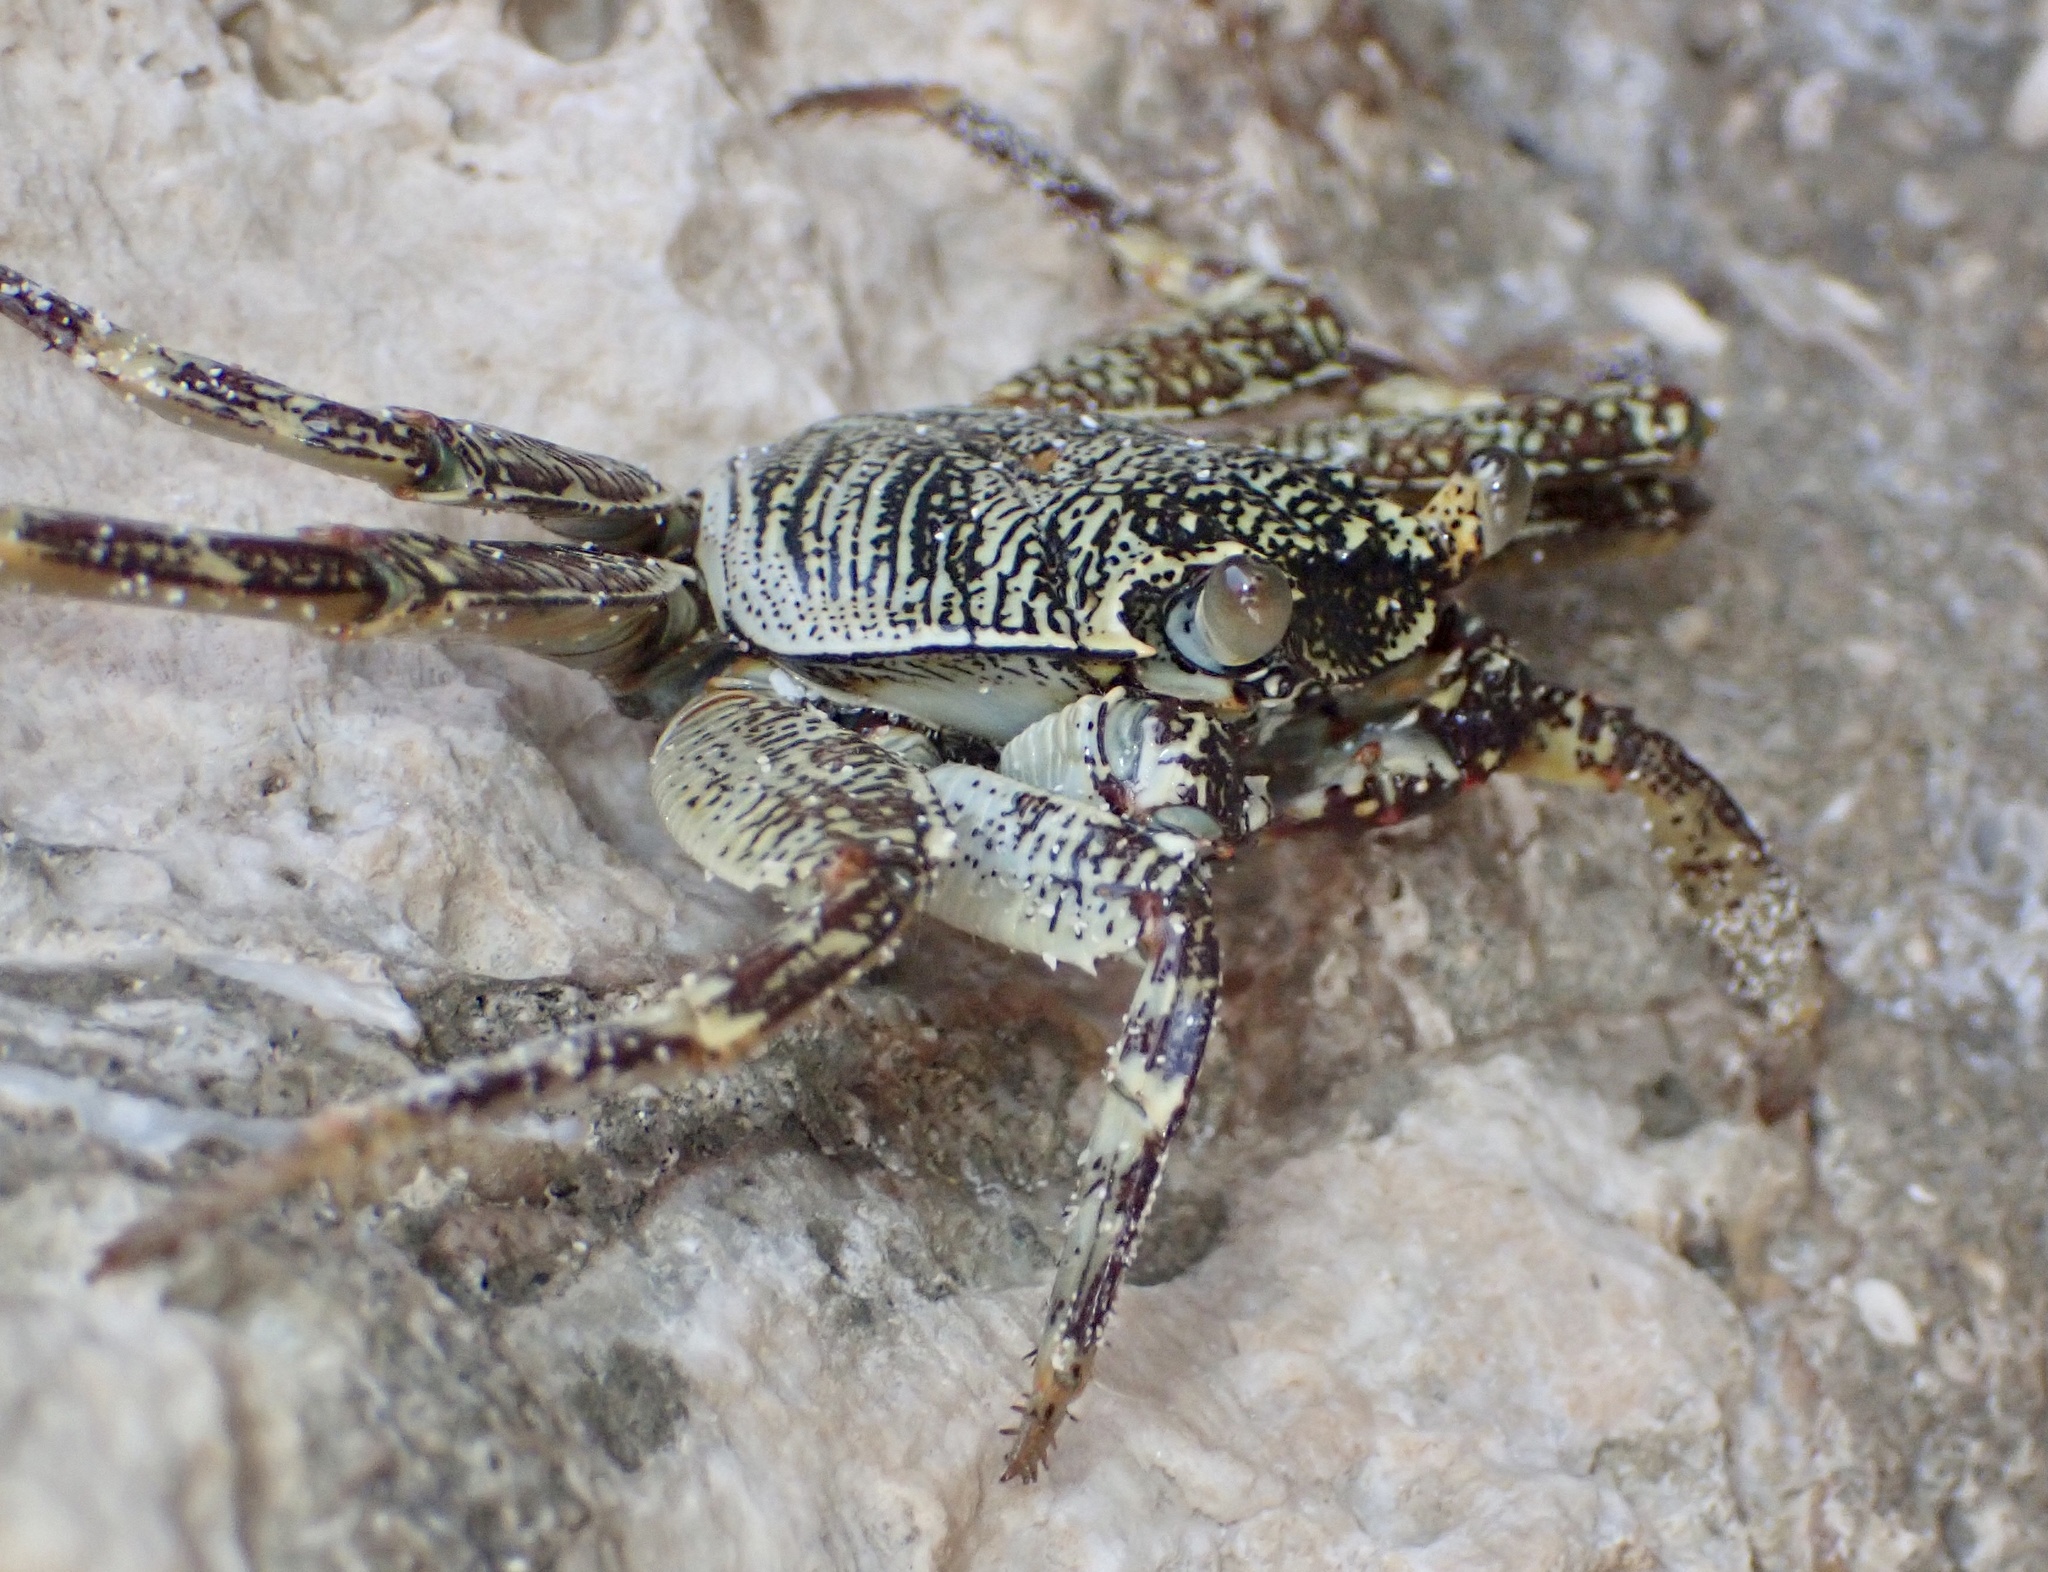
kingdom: Animalia
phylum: Arthropoda
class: Malacostraca
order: Decapoda
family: Grapsidae
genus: Grapsus
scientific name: Grapsus tenuicrustatus
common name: Natal lightfoot crab
